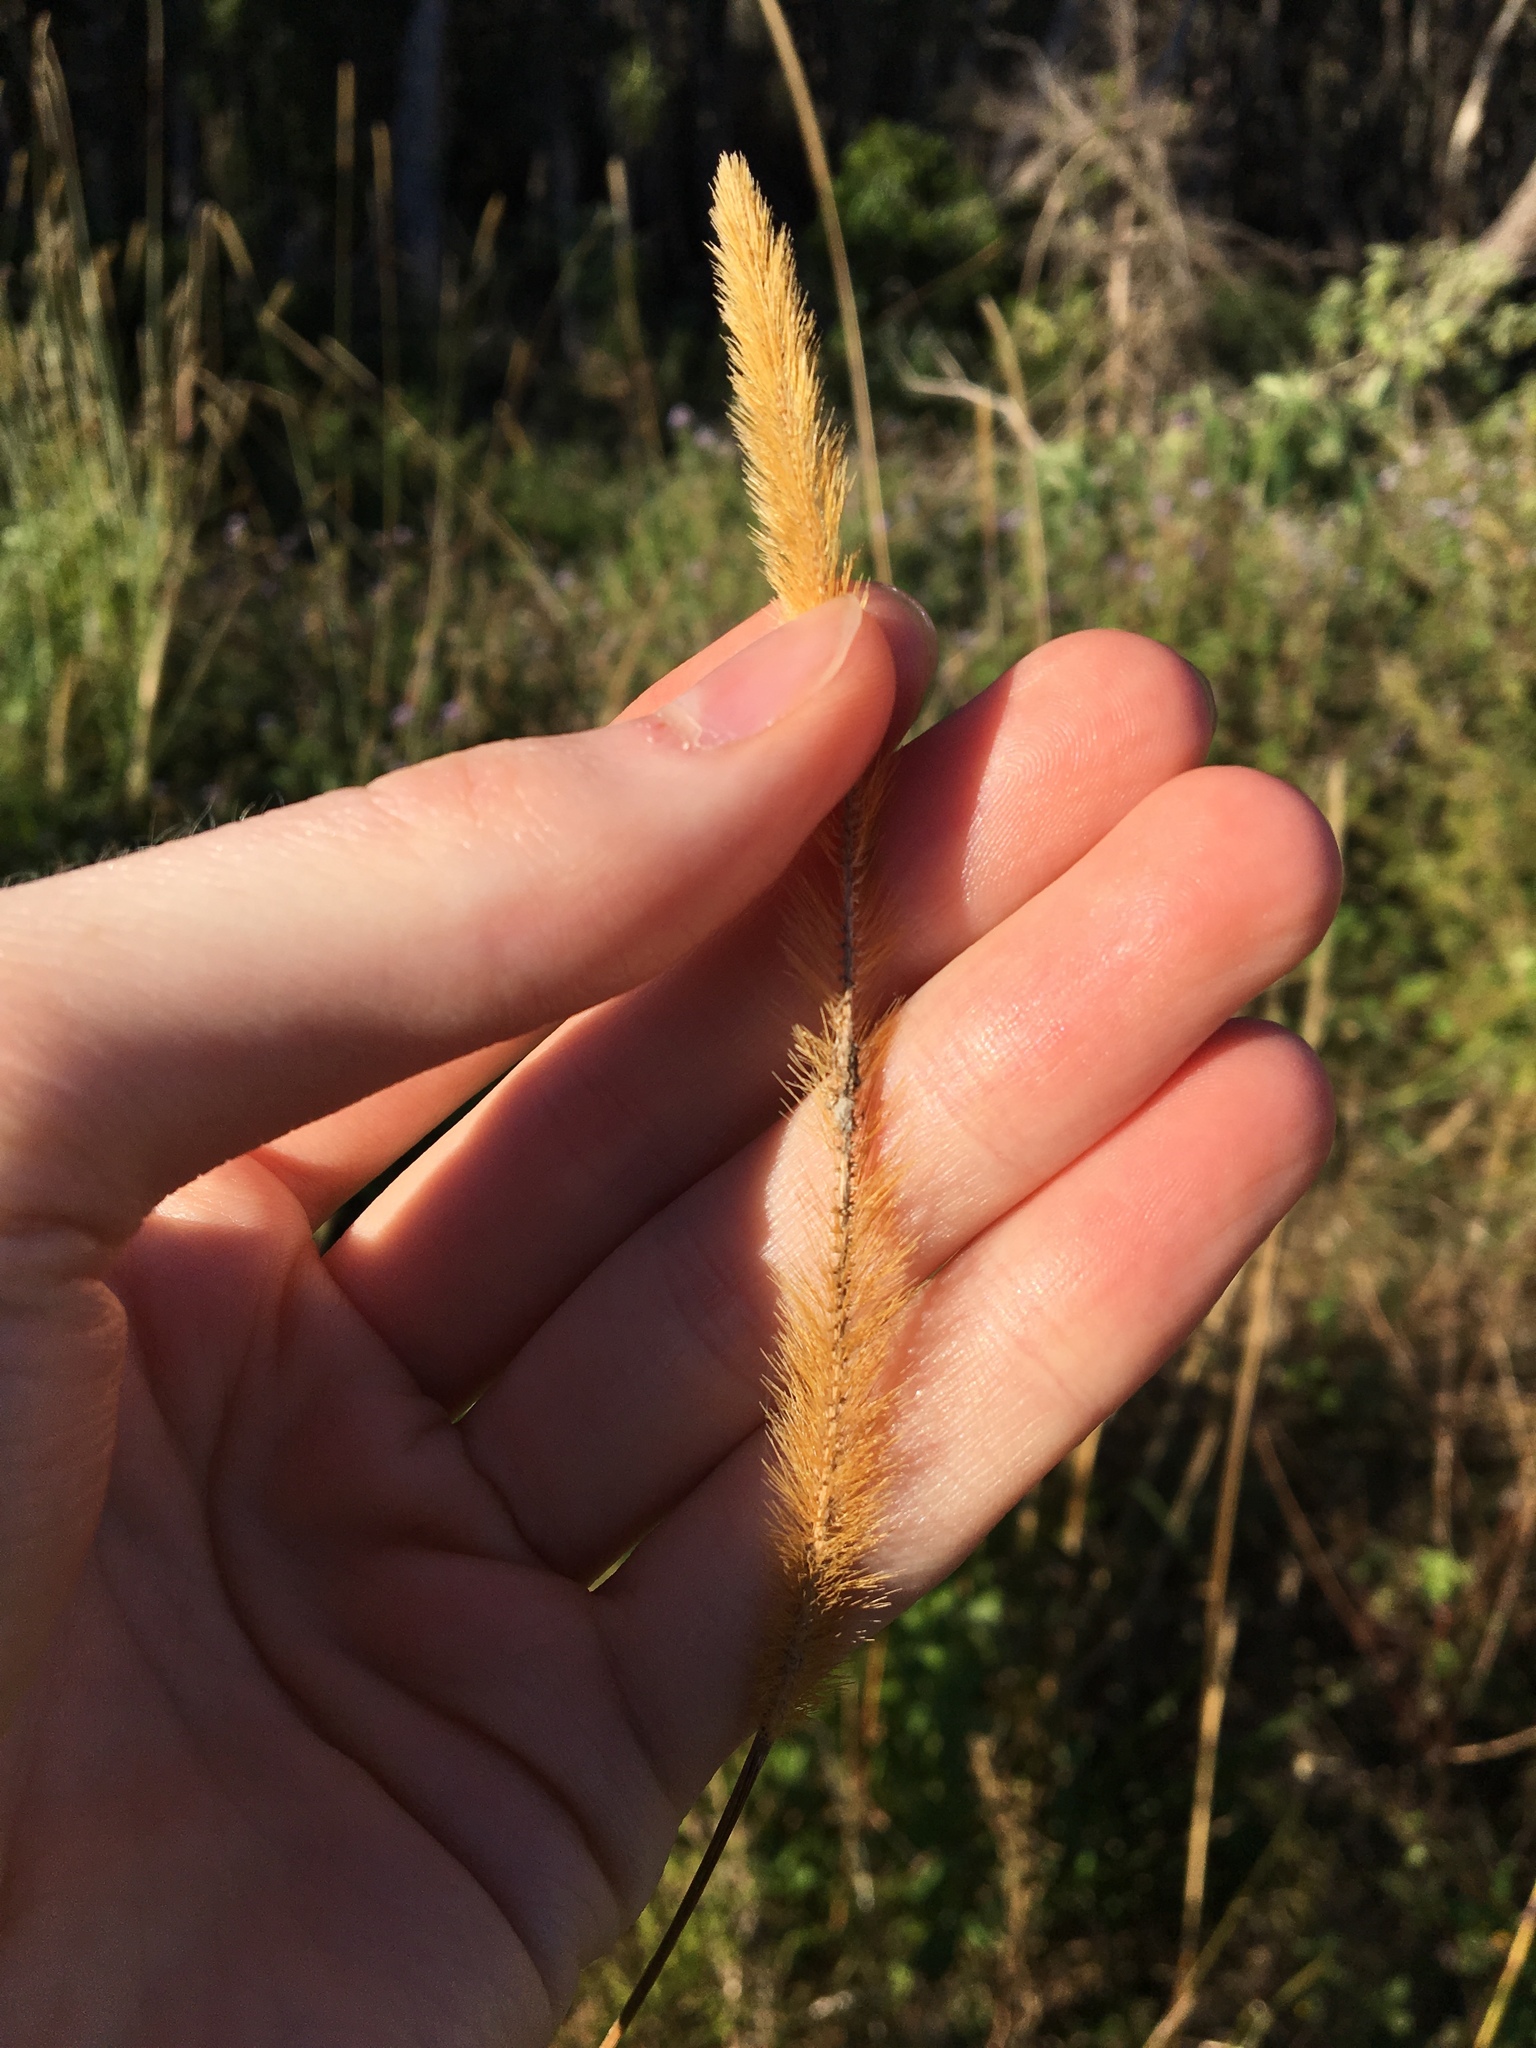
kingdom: Plantae
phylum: Tracheophyta
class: Liliopsida
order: Poales
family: Poaceae
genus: Setaria
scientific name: Setaria sphacelata
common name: African bristlegrass
